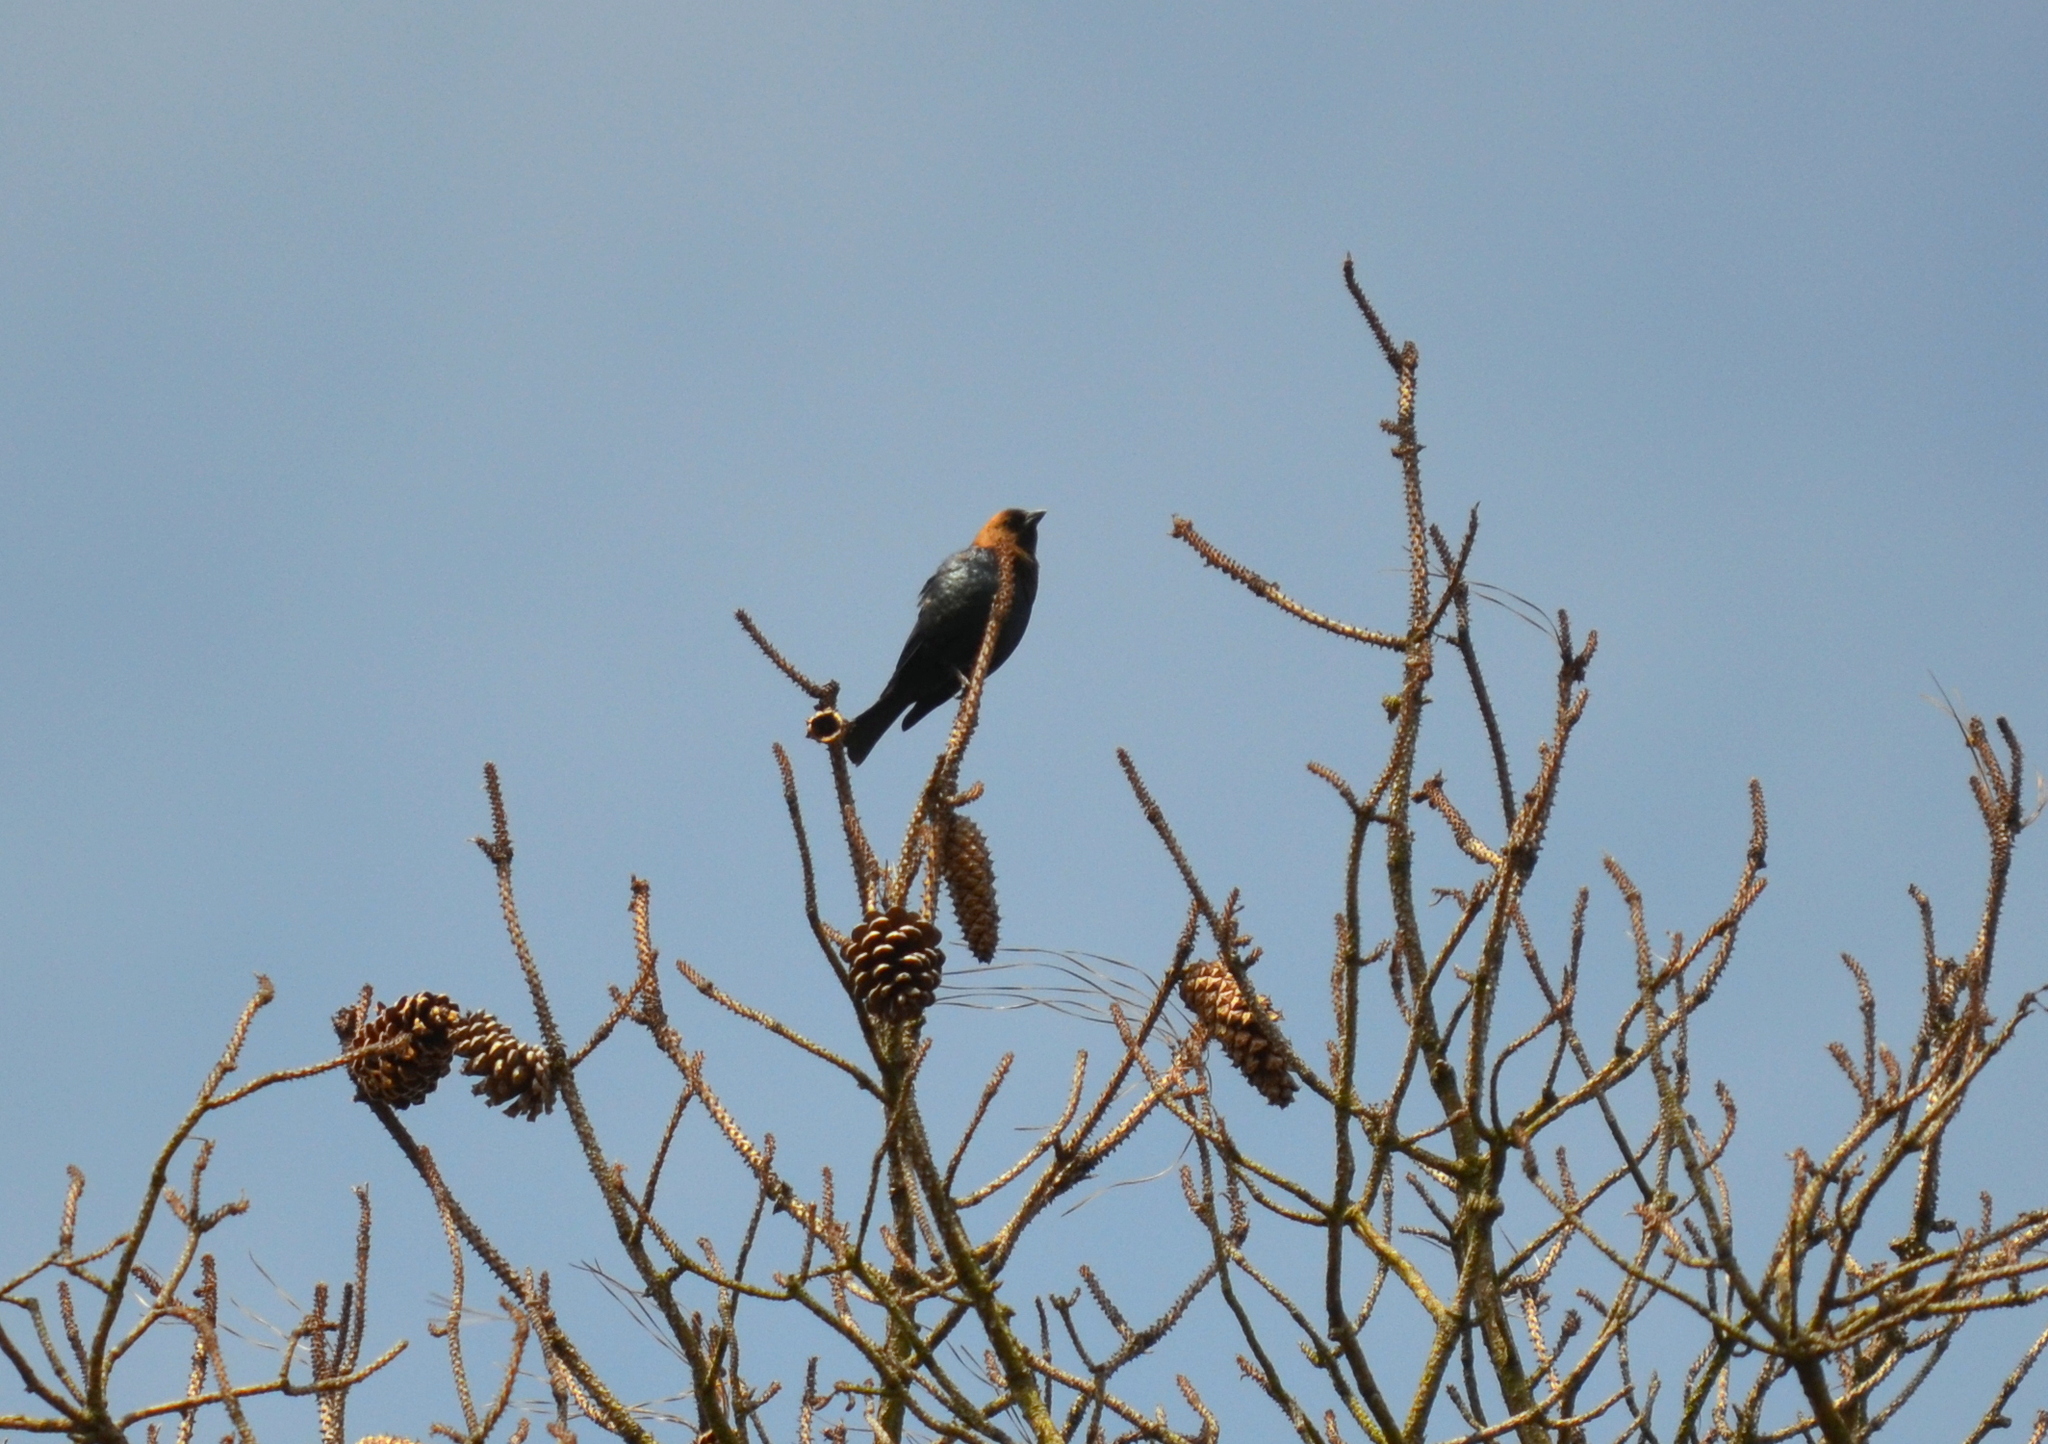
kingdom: Animalia
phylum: Chordata
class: Aves
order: Passeriformes
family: Icteridae
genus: Molothrus
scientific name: Molothrus ater
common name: Brown-headed cowbird
